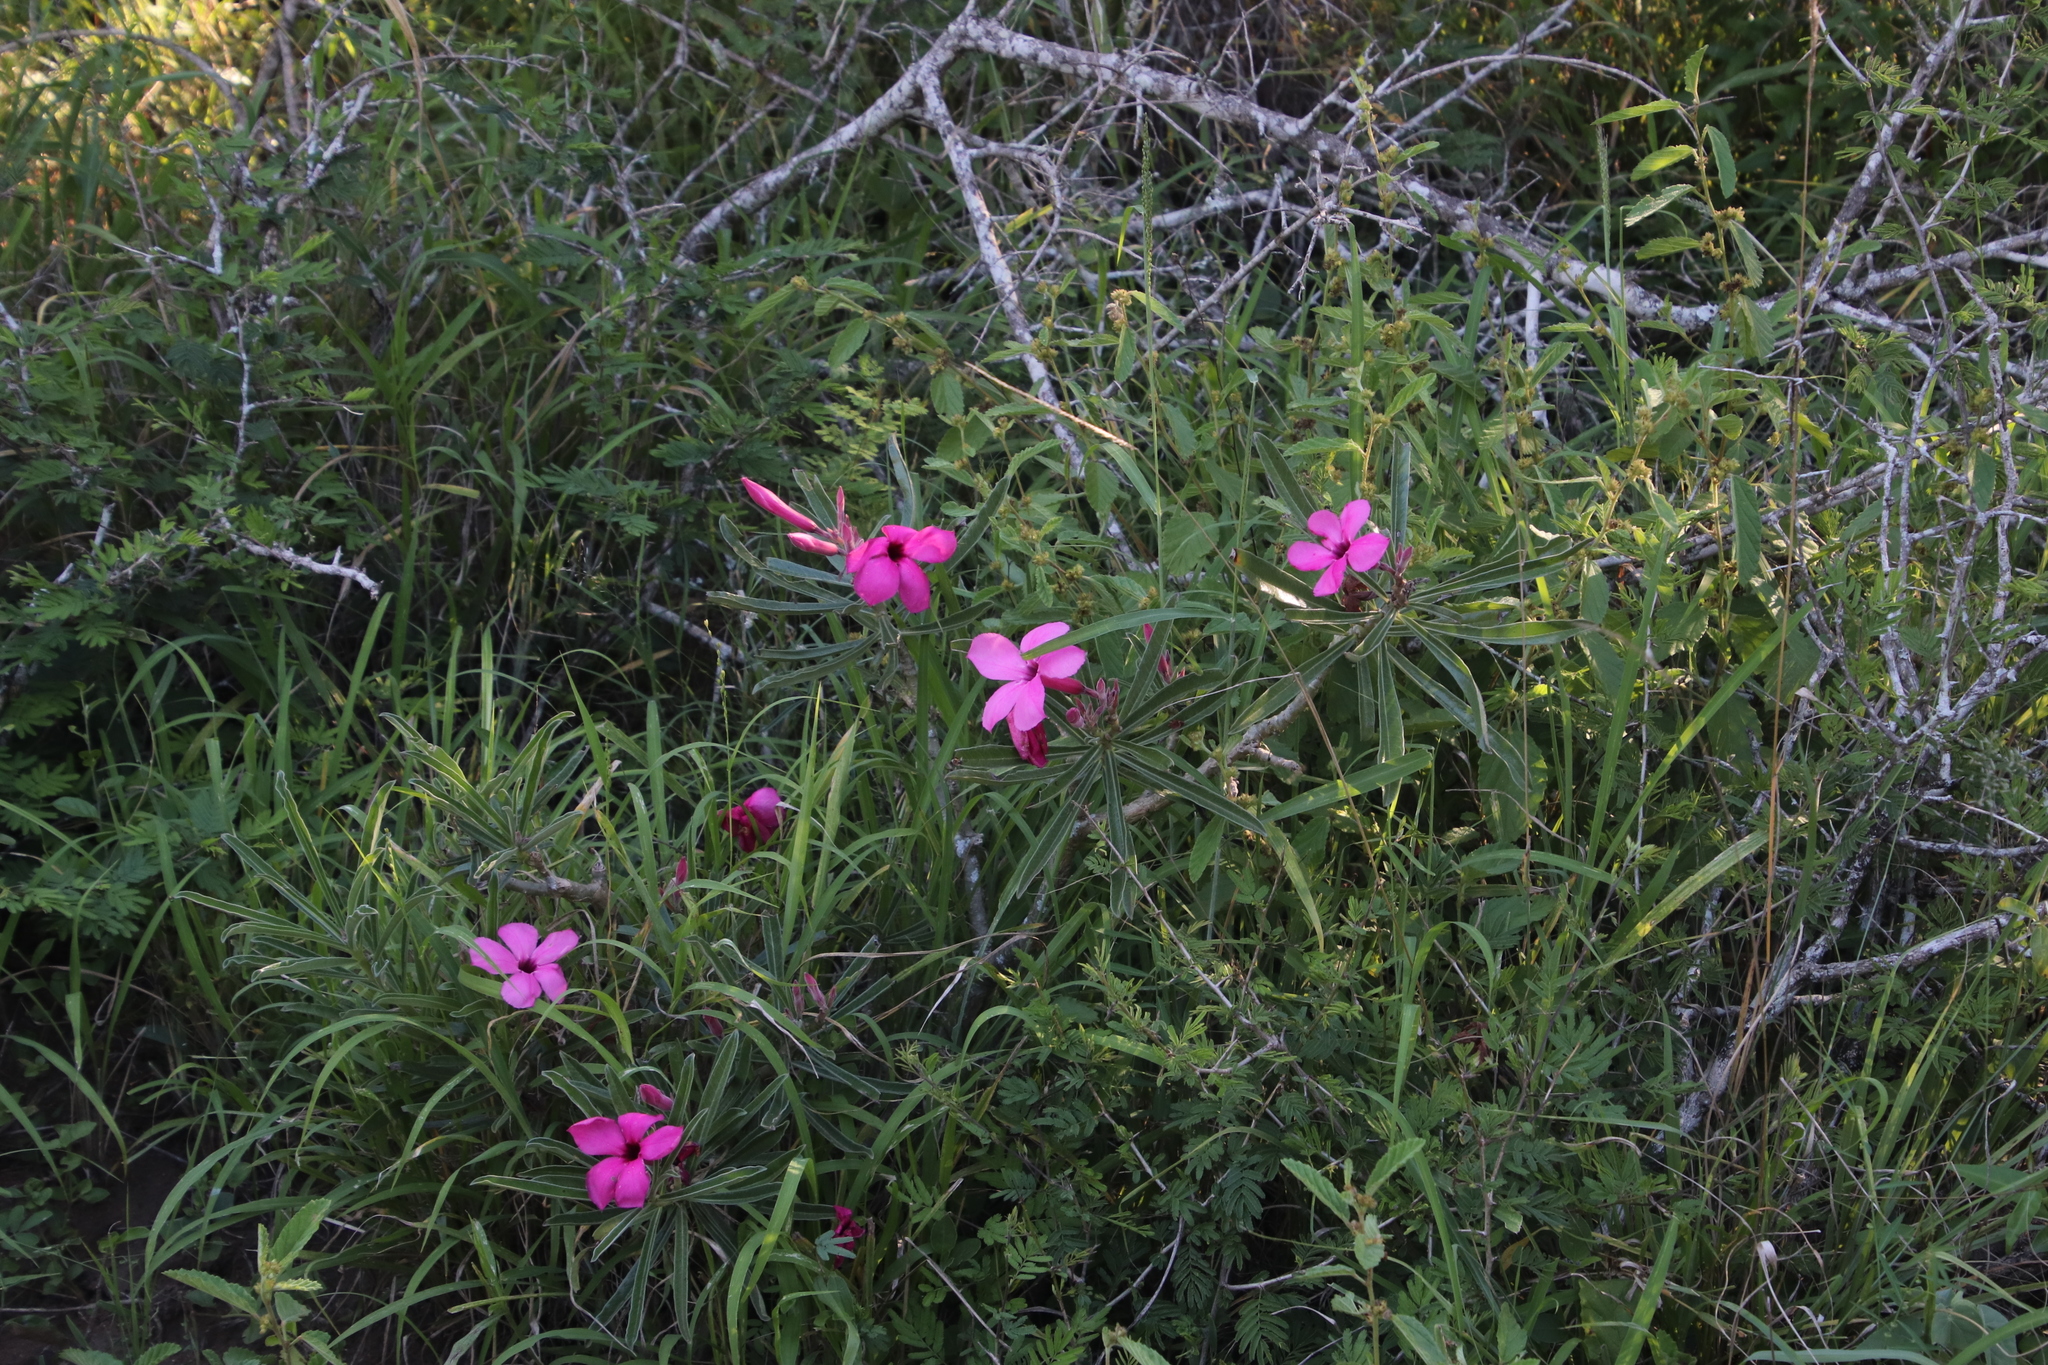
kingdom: Plantae
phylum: Tracheophyta
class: Magnoliopsida
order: Gentianales
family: Apocynaceae
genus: Adenium
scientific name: Adenium obesum
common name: Desert-rose
